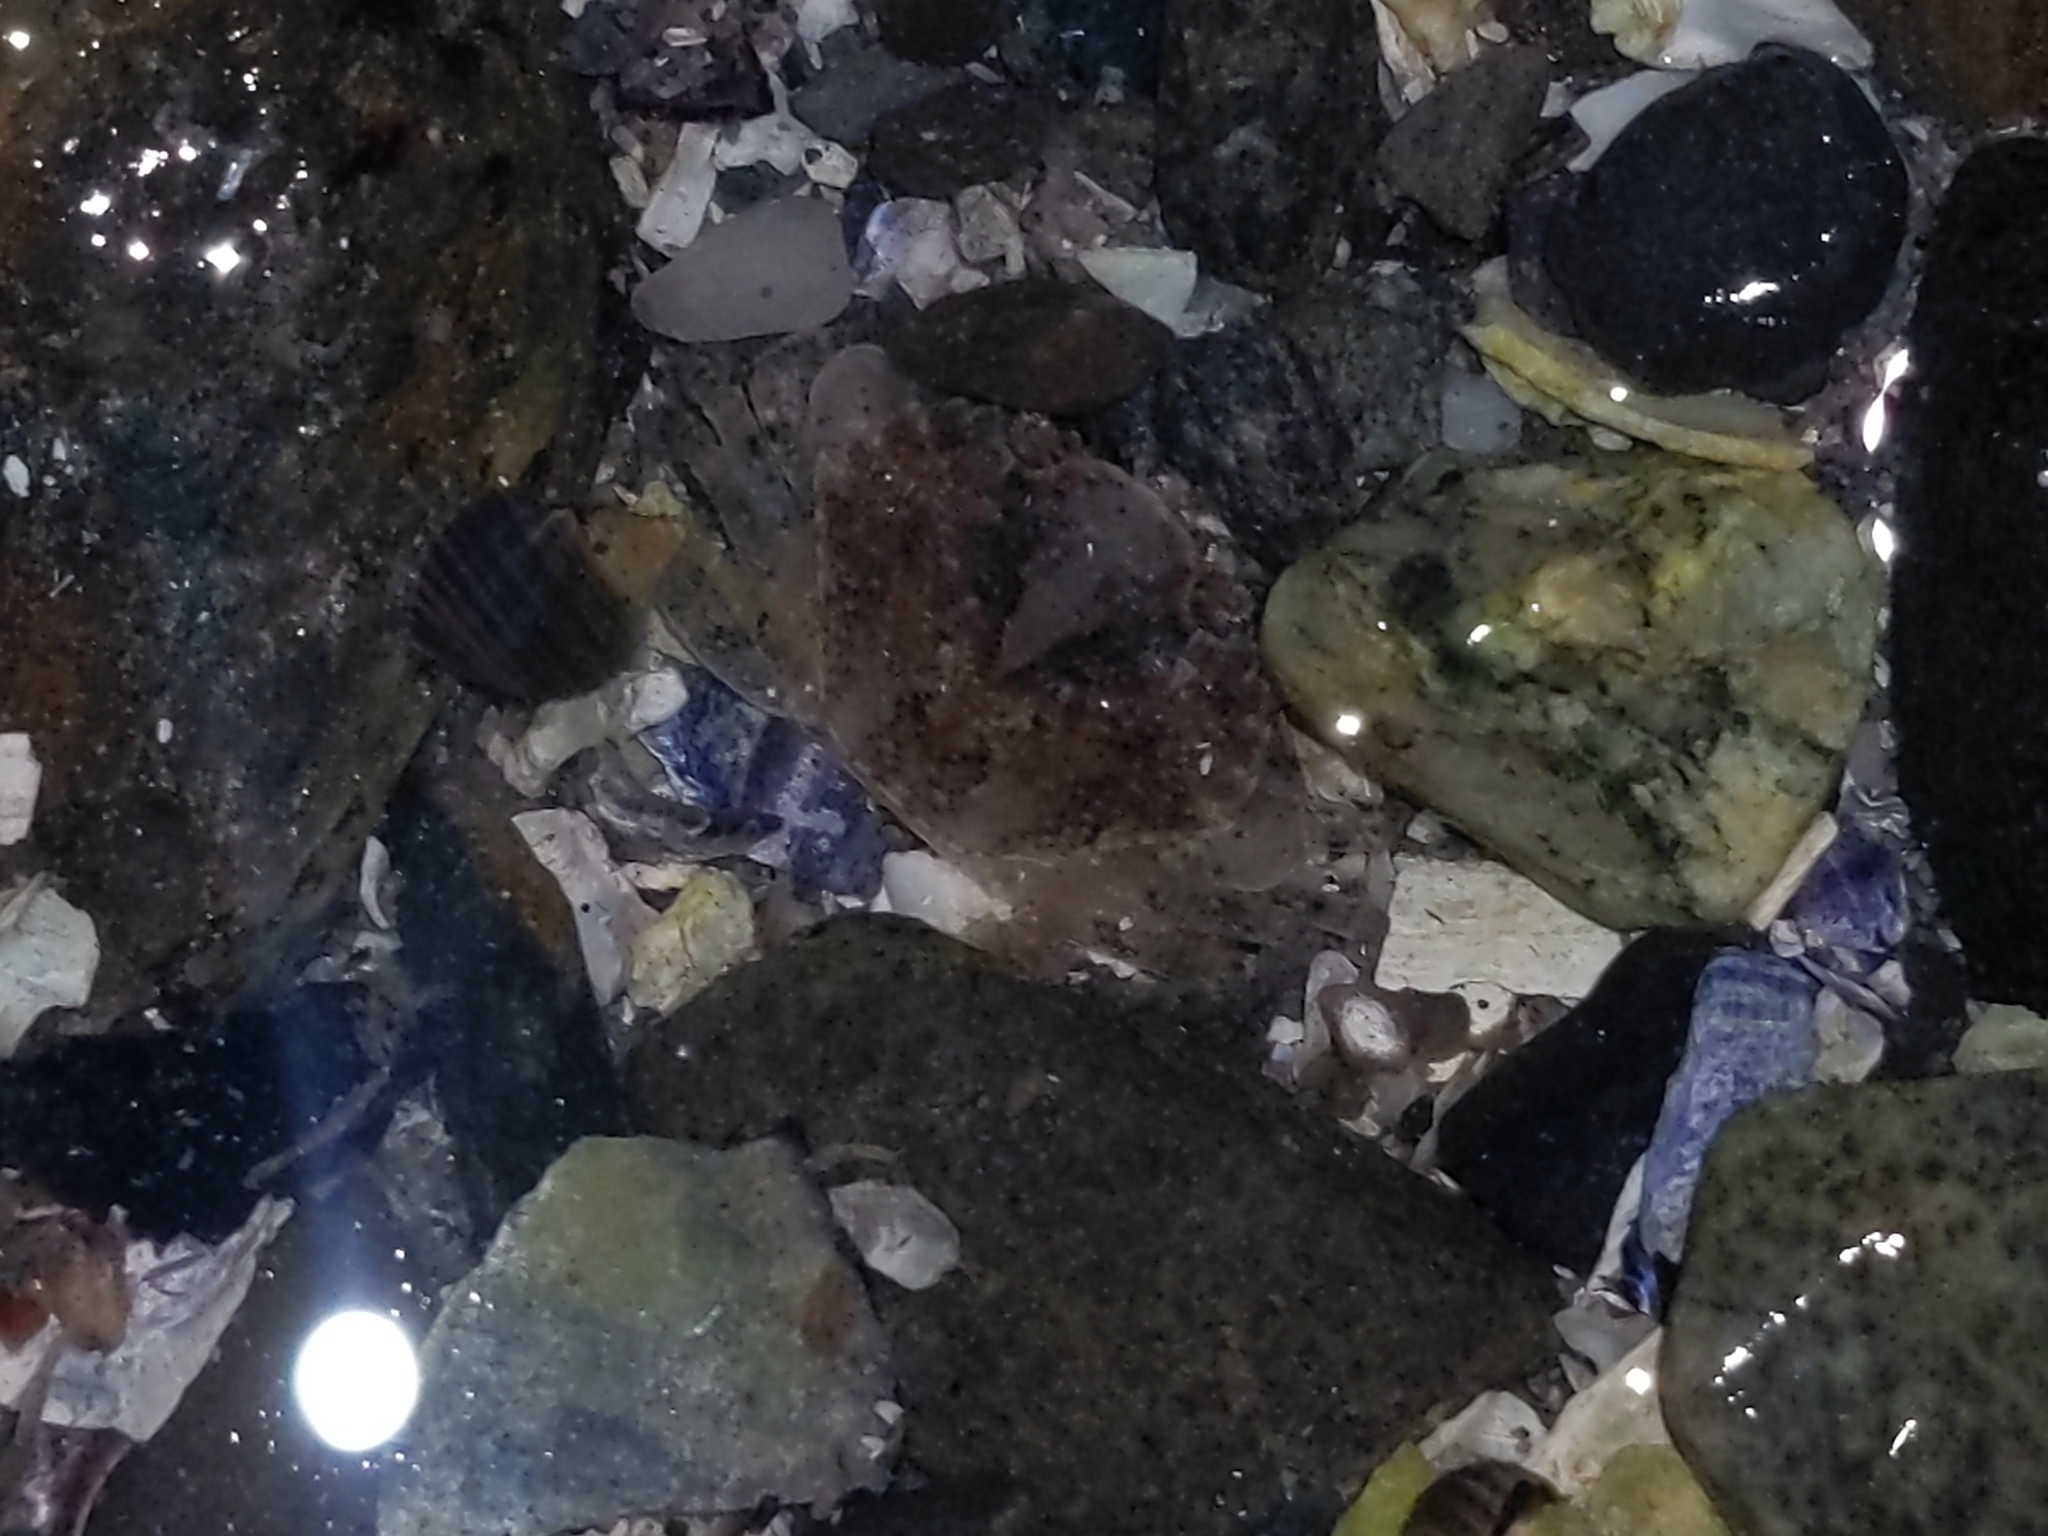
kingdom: Animalia
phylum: Arthropoda
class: Malacostraca
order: Decapoda
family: Carcinidae
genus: Carcinus
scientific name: Carcinus maenas
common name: European green crab
